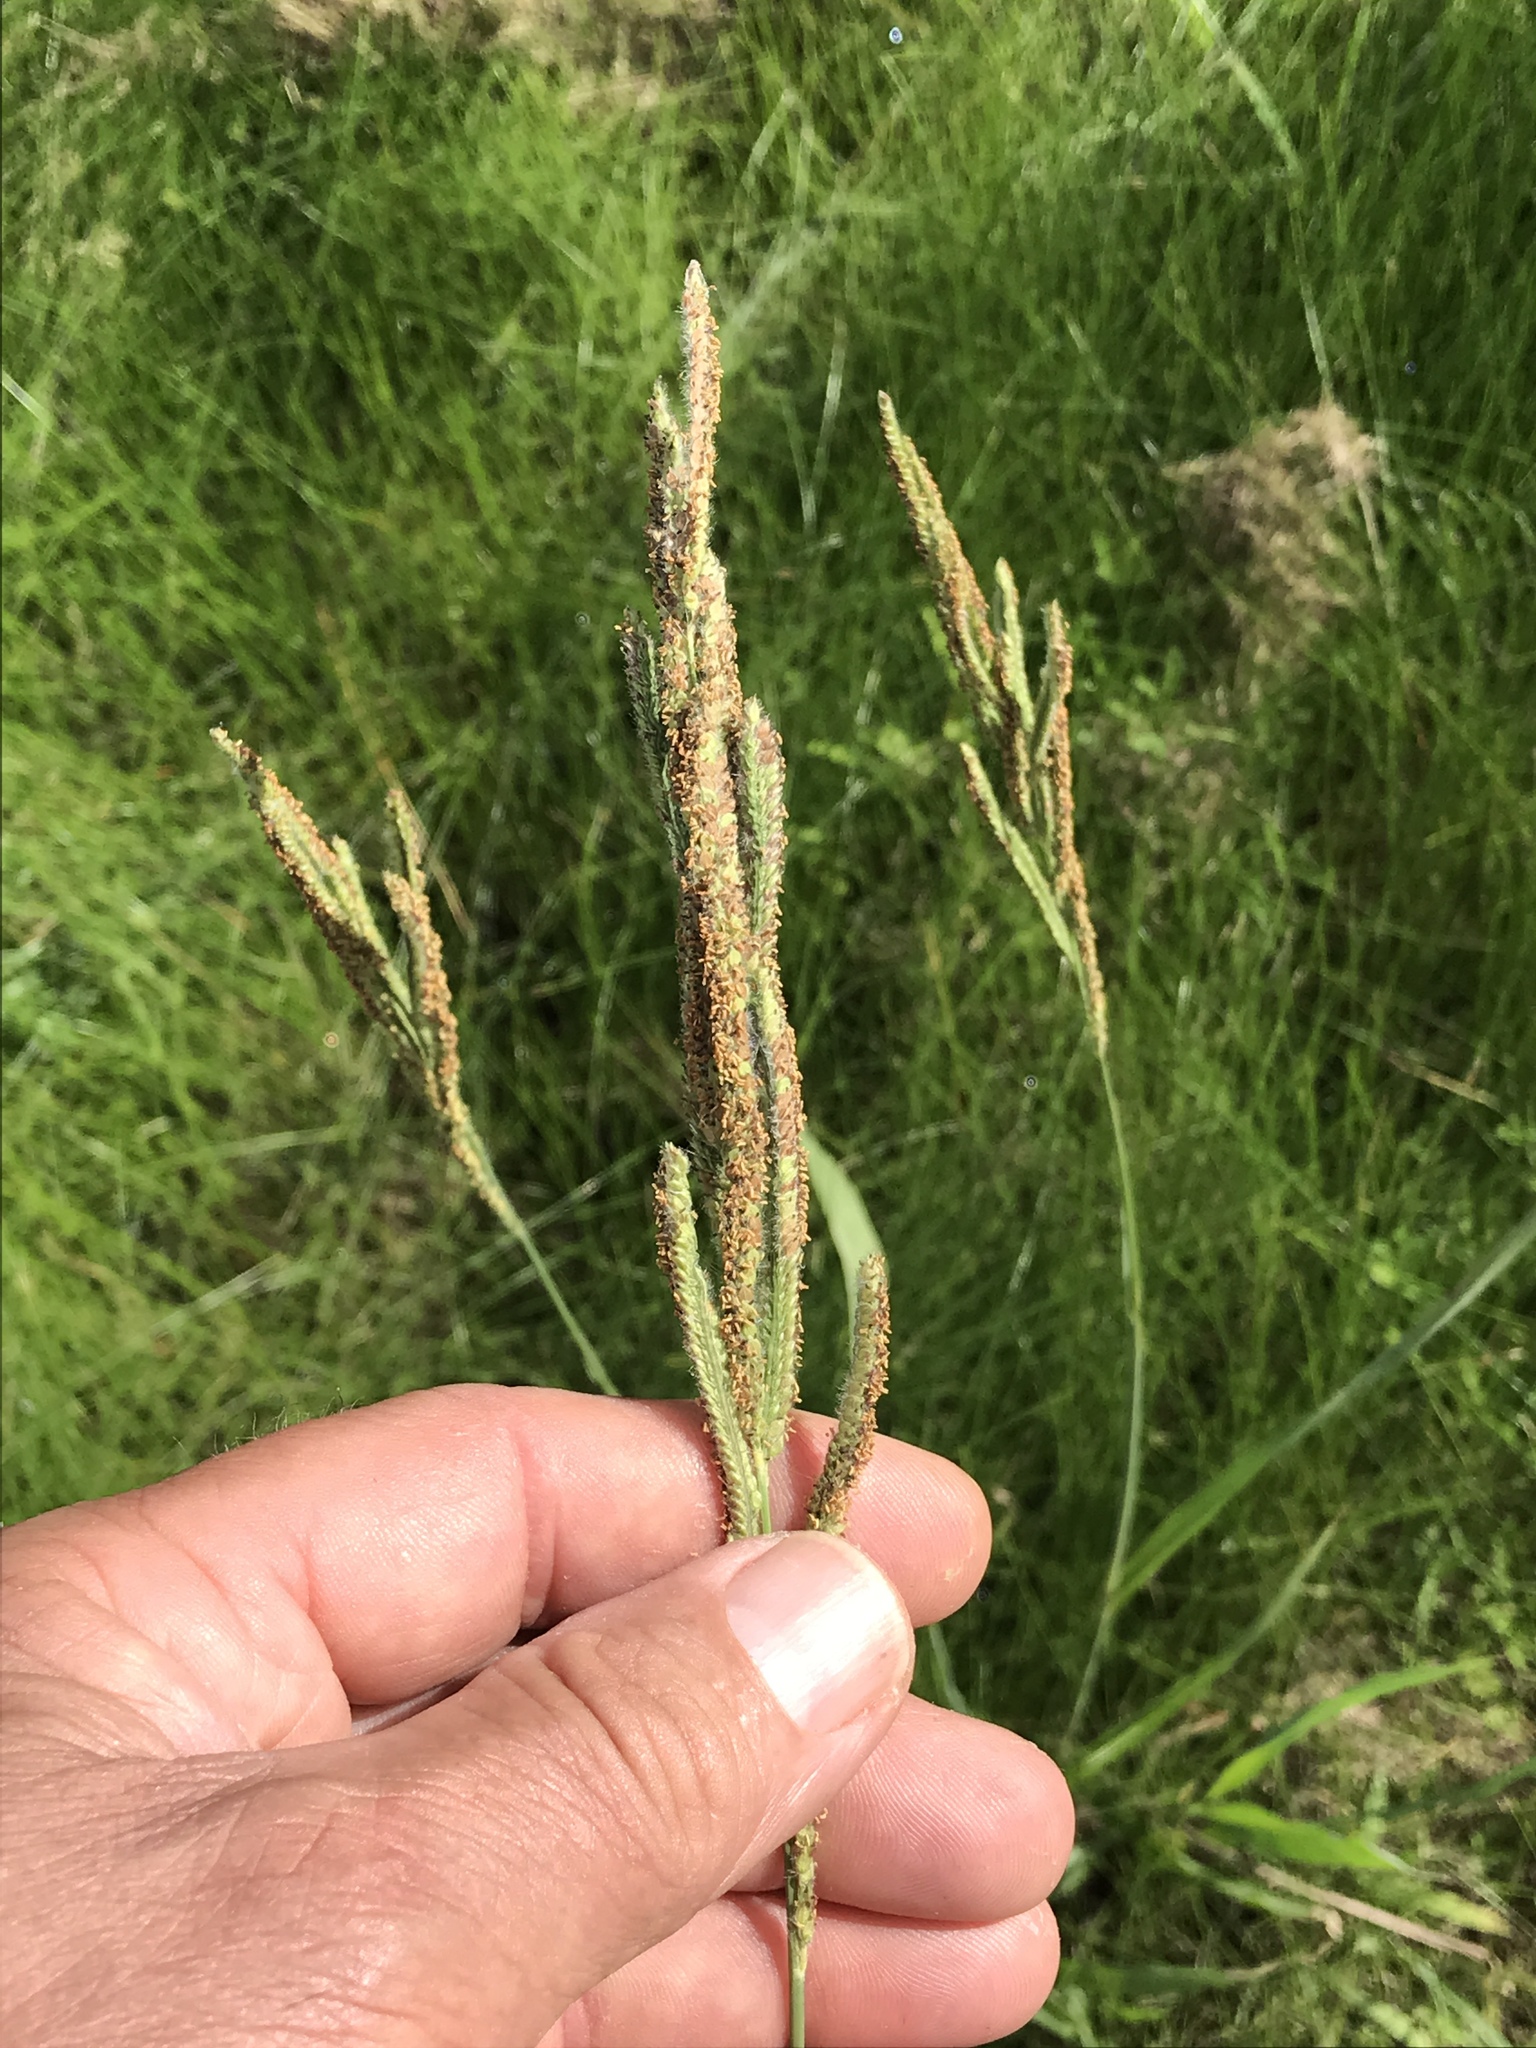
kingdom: Plantae
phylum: Tracheophyta
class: Liliopsida
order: Poales
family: Poaceae
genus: Paspalum
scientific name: Paspalum urvillei
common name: Vasey's grass
